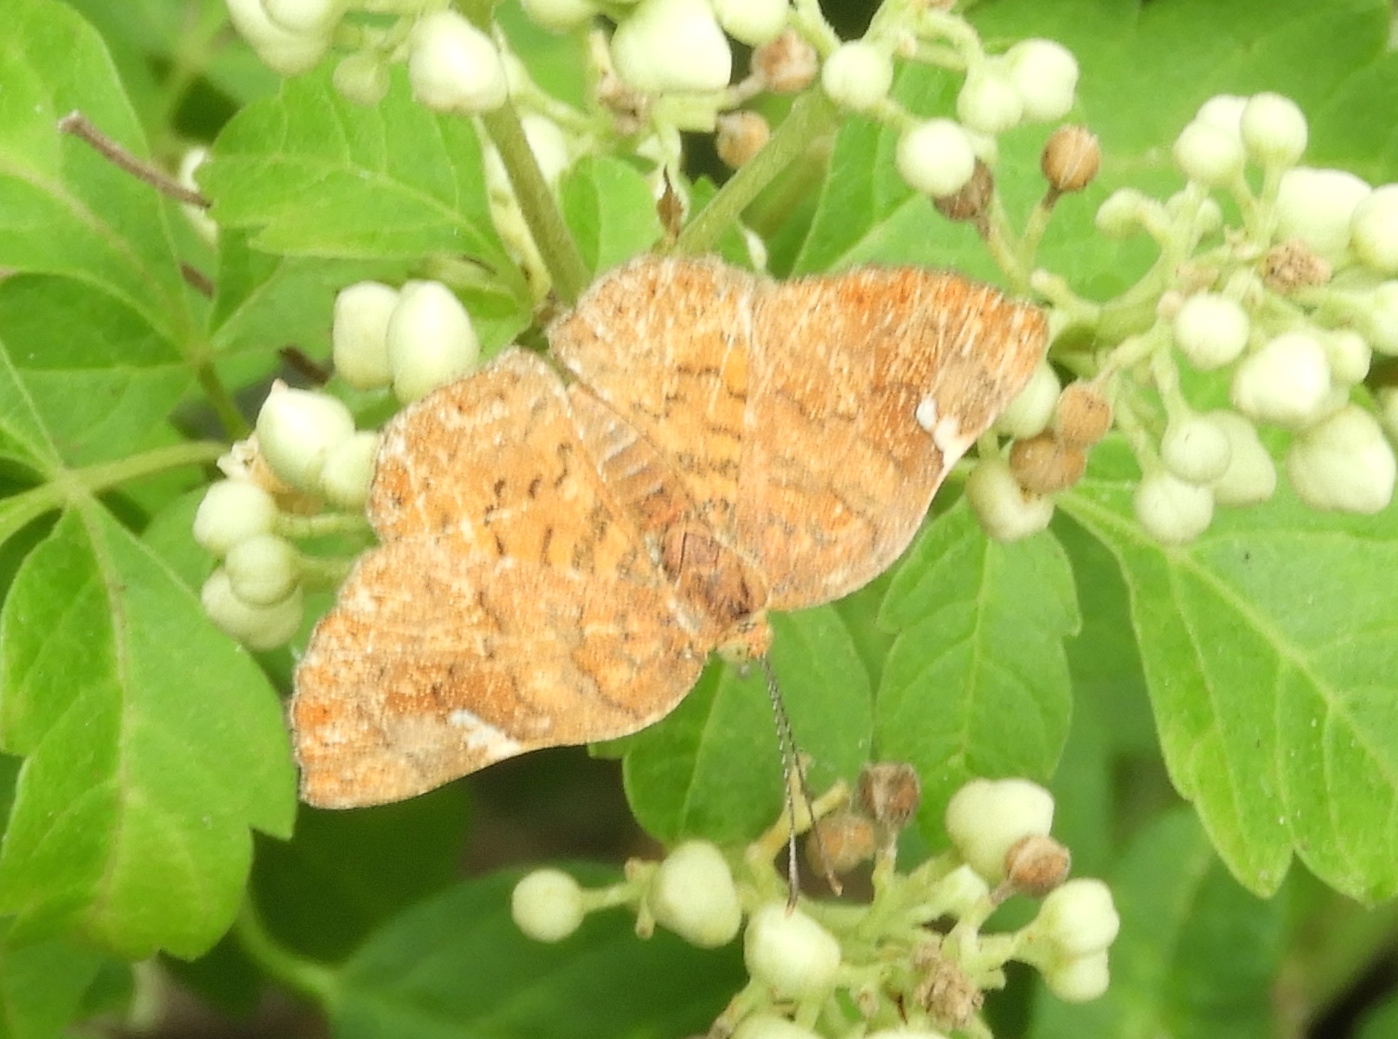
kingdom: Animalia
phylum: Arthropoda
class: Insecta
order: Lepidoptera
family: Riodinidae
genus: Curvie
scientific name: Curvie emesia
